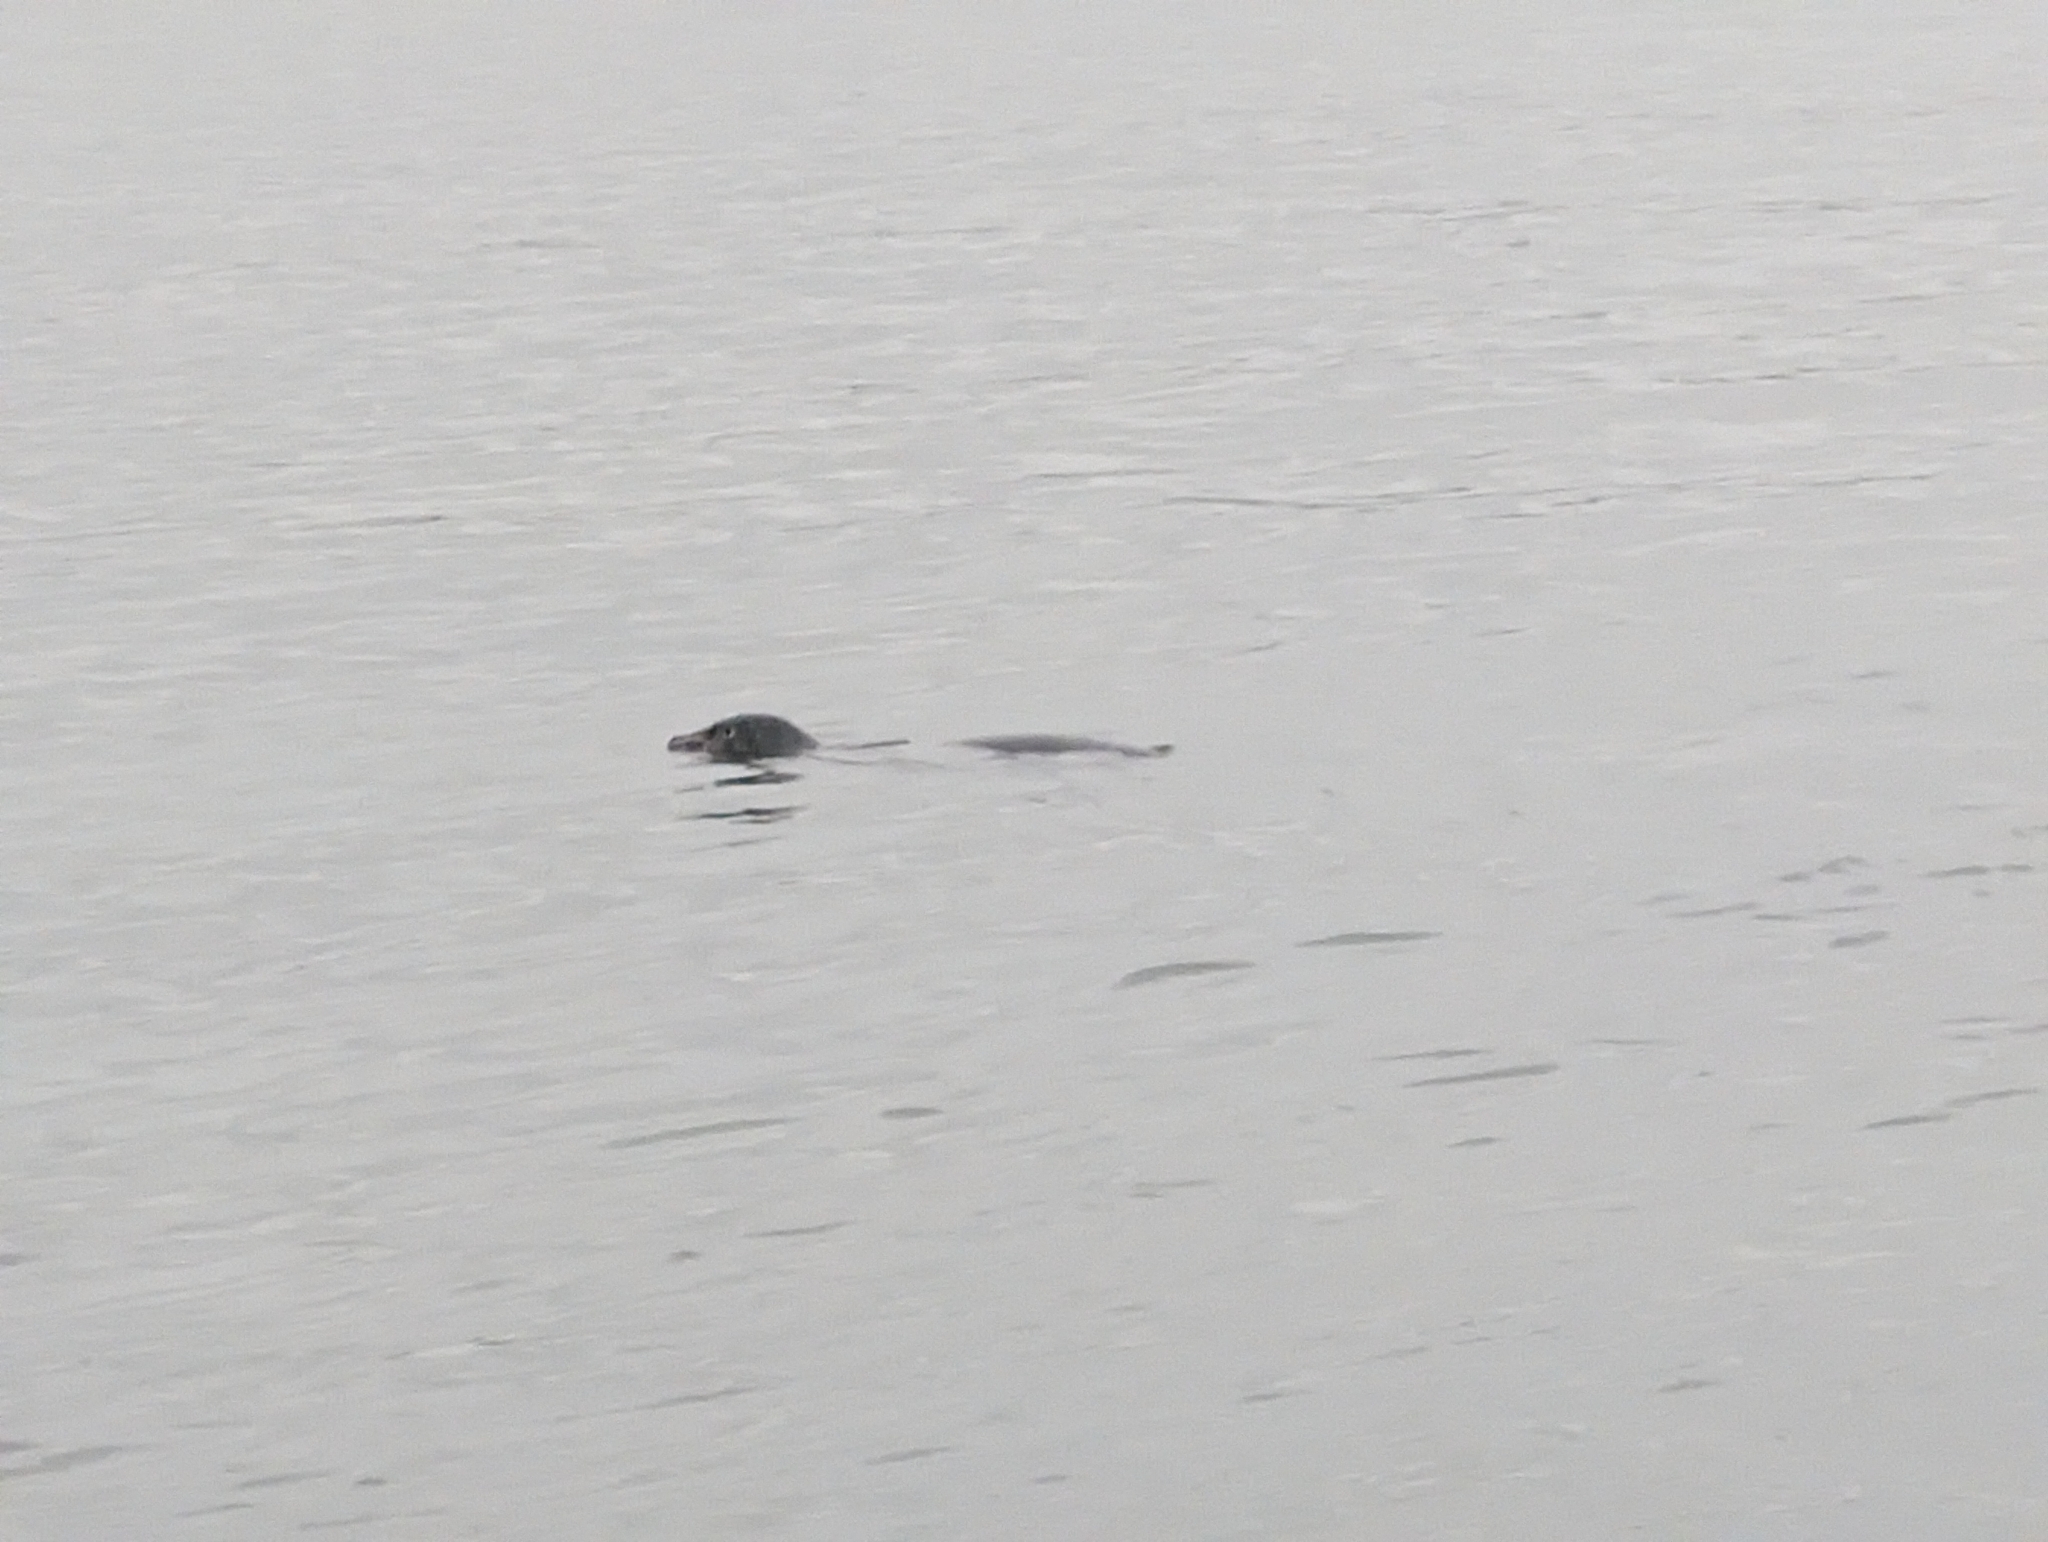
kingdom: Animalia
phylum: Chordata
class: Mammalia
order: Carnivora
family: Phocidae
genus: Phoca
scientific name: Phoca vitulina
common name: Harbor seal
